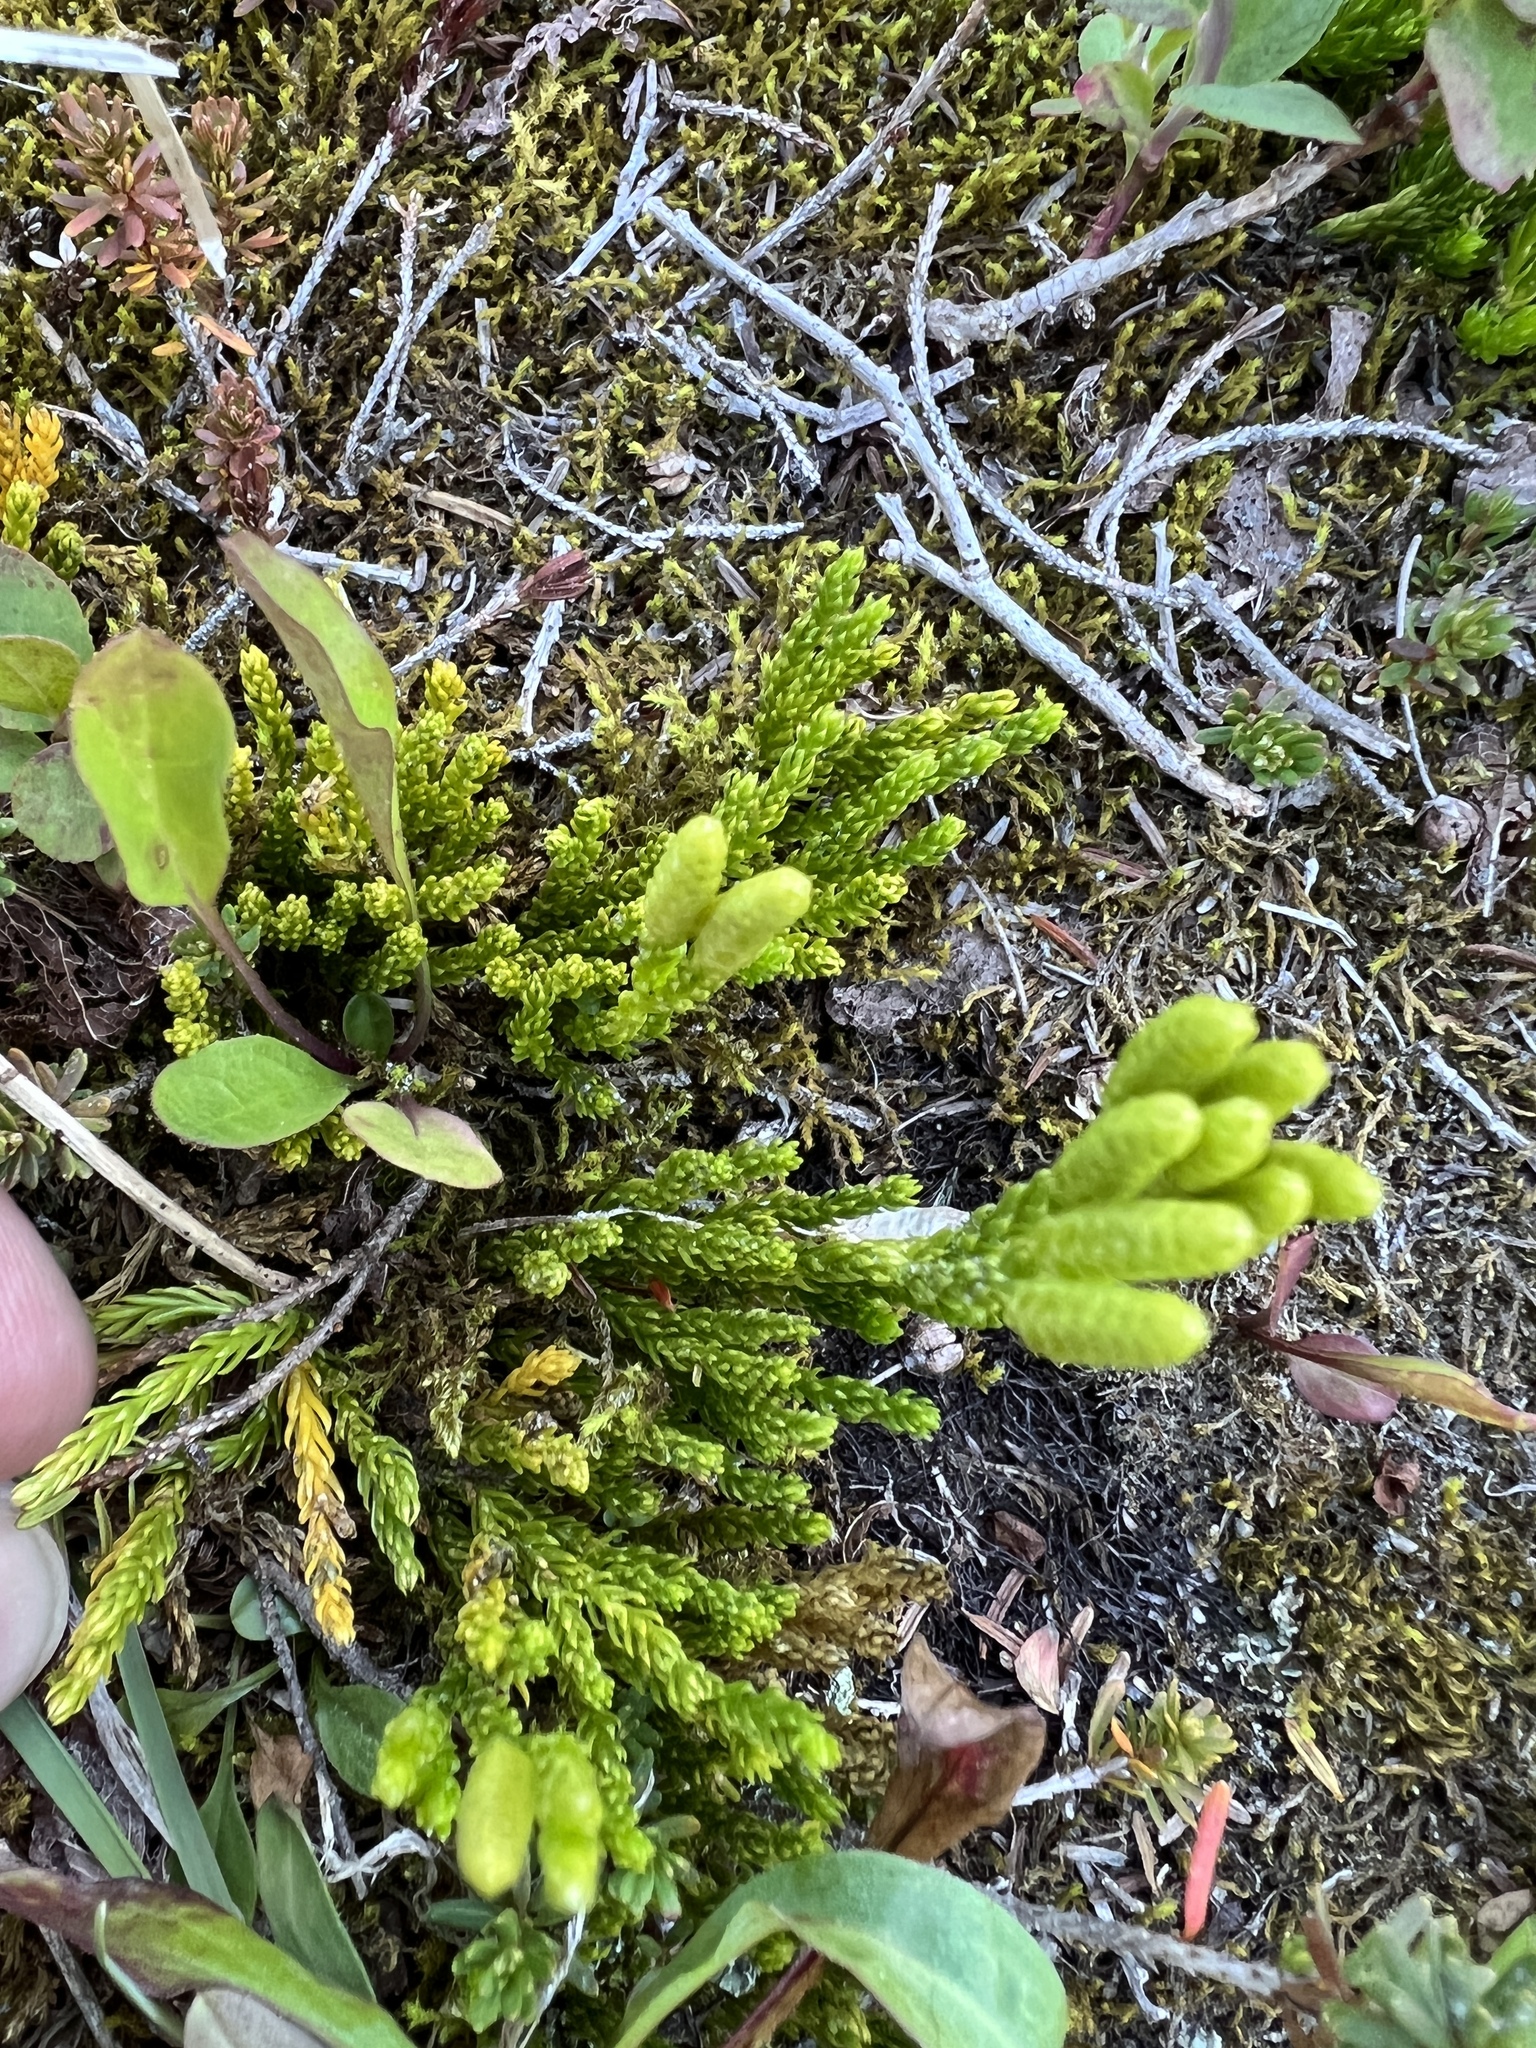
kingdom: Plantae
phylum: Tracheophyta
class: Lycopodiopsida
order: Lycopodiales
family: Lycopodiaceae
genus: Diphasiastrum
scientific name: Diphasiastrum sitchense
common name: Alaska clubmoss
